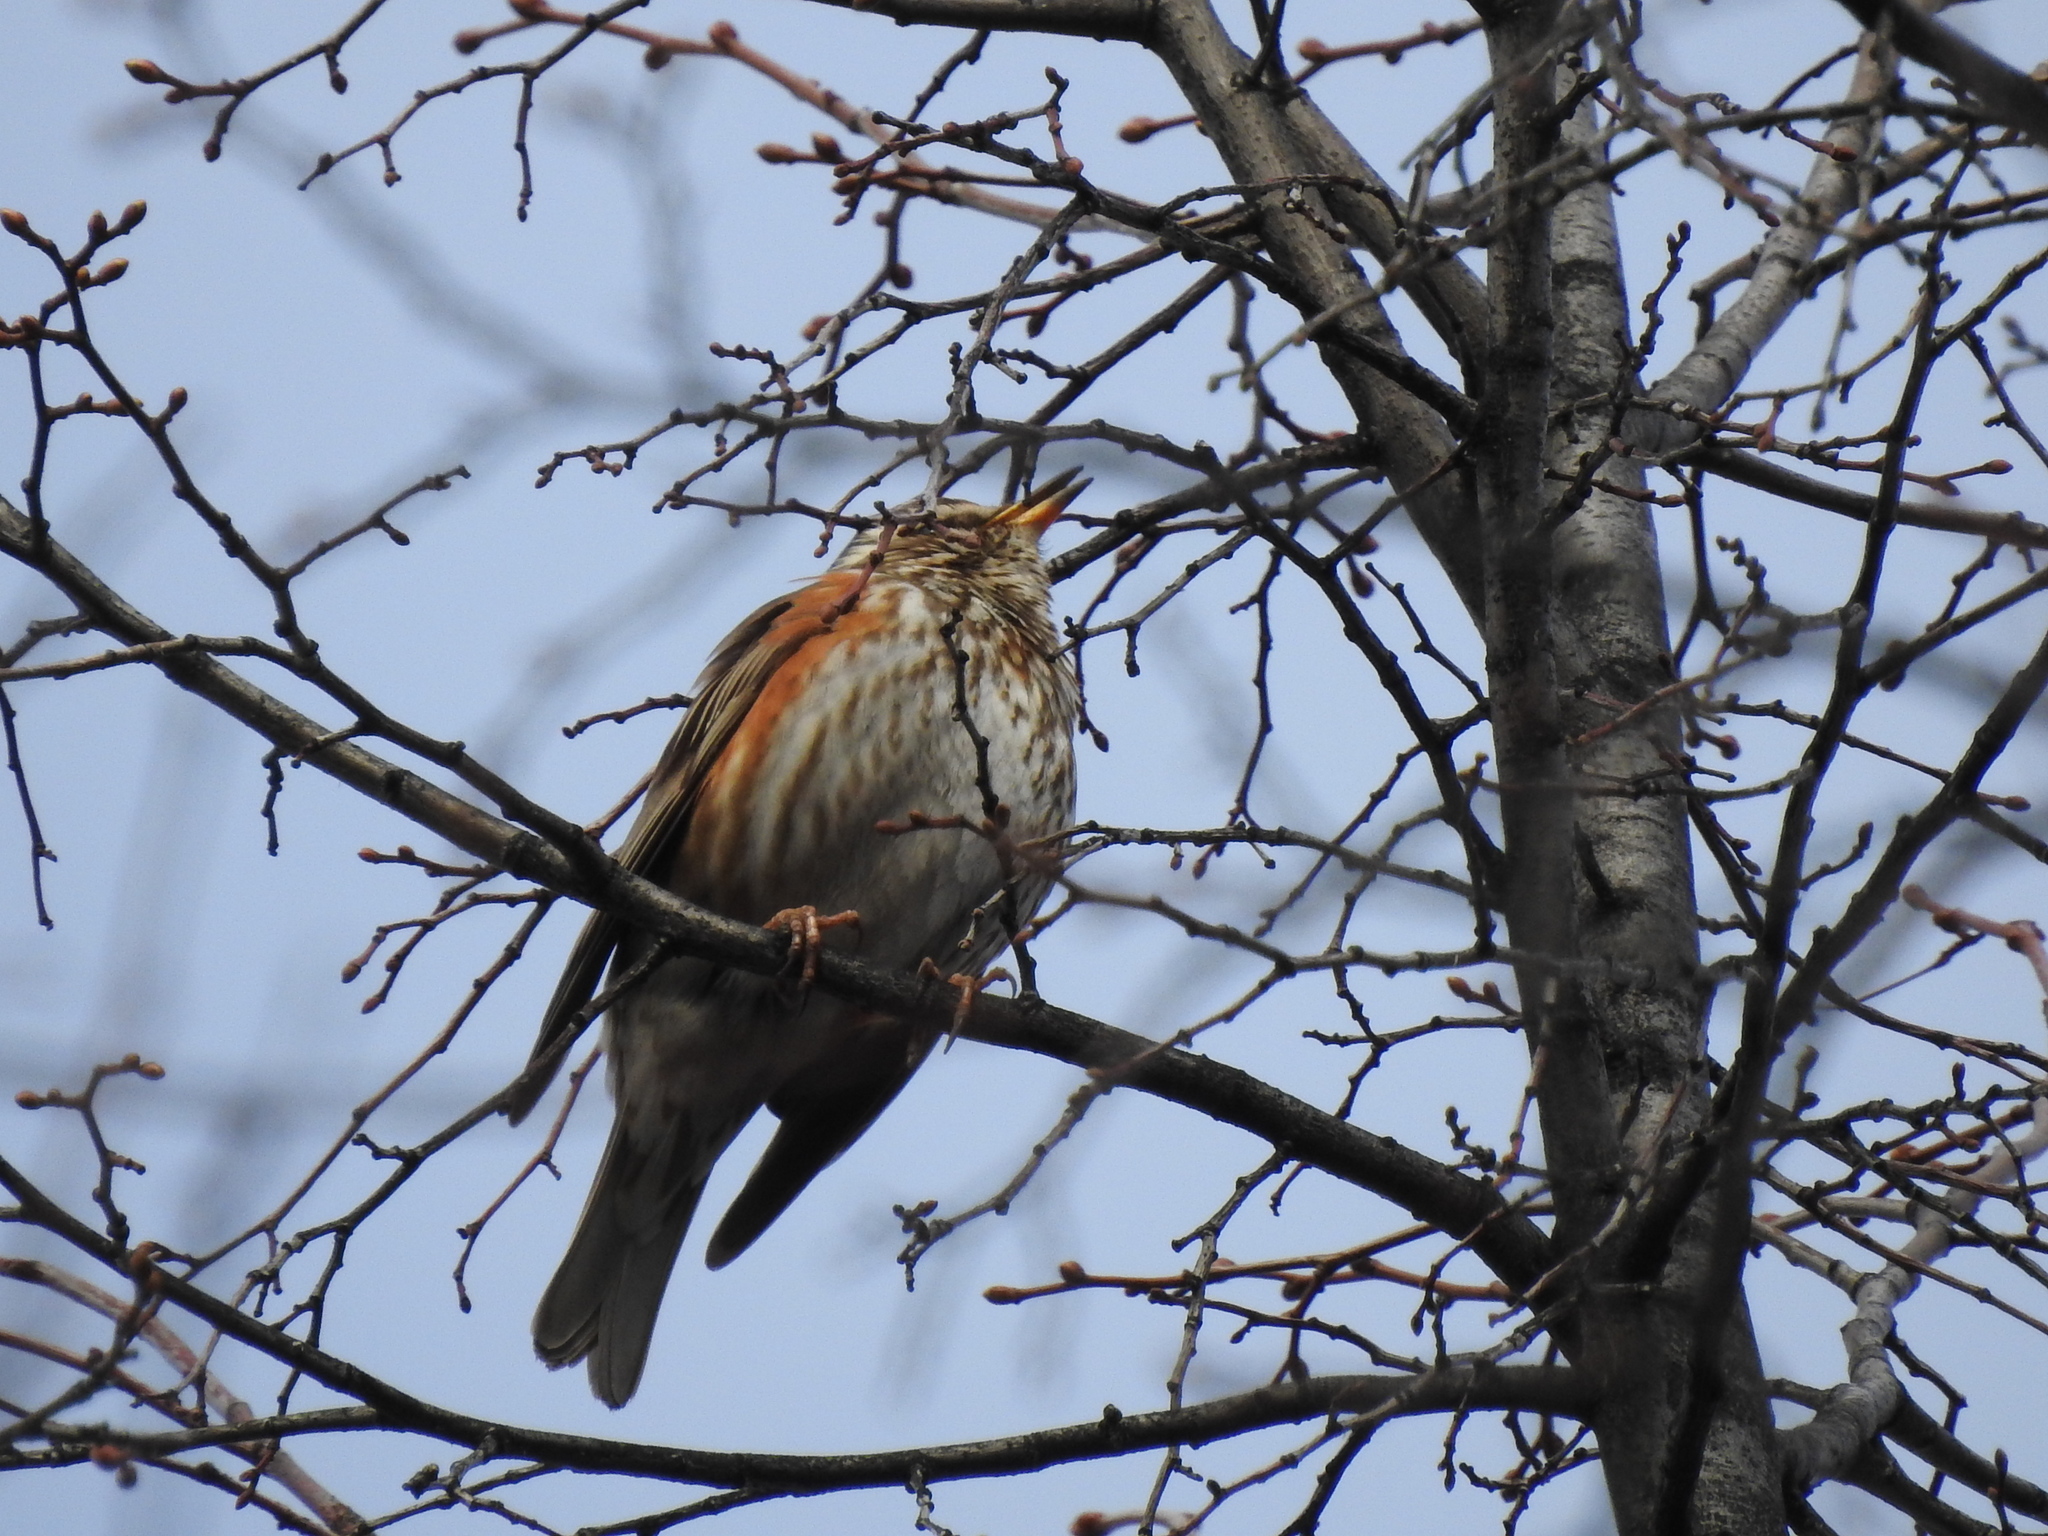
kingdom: Animalia
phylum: Chordata
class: Aves
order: Passeriformes
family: Turdidae
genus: Turdus
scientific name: Turdus iliacus
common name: Redwing
